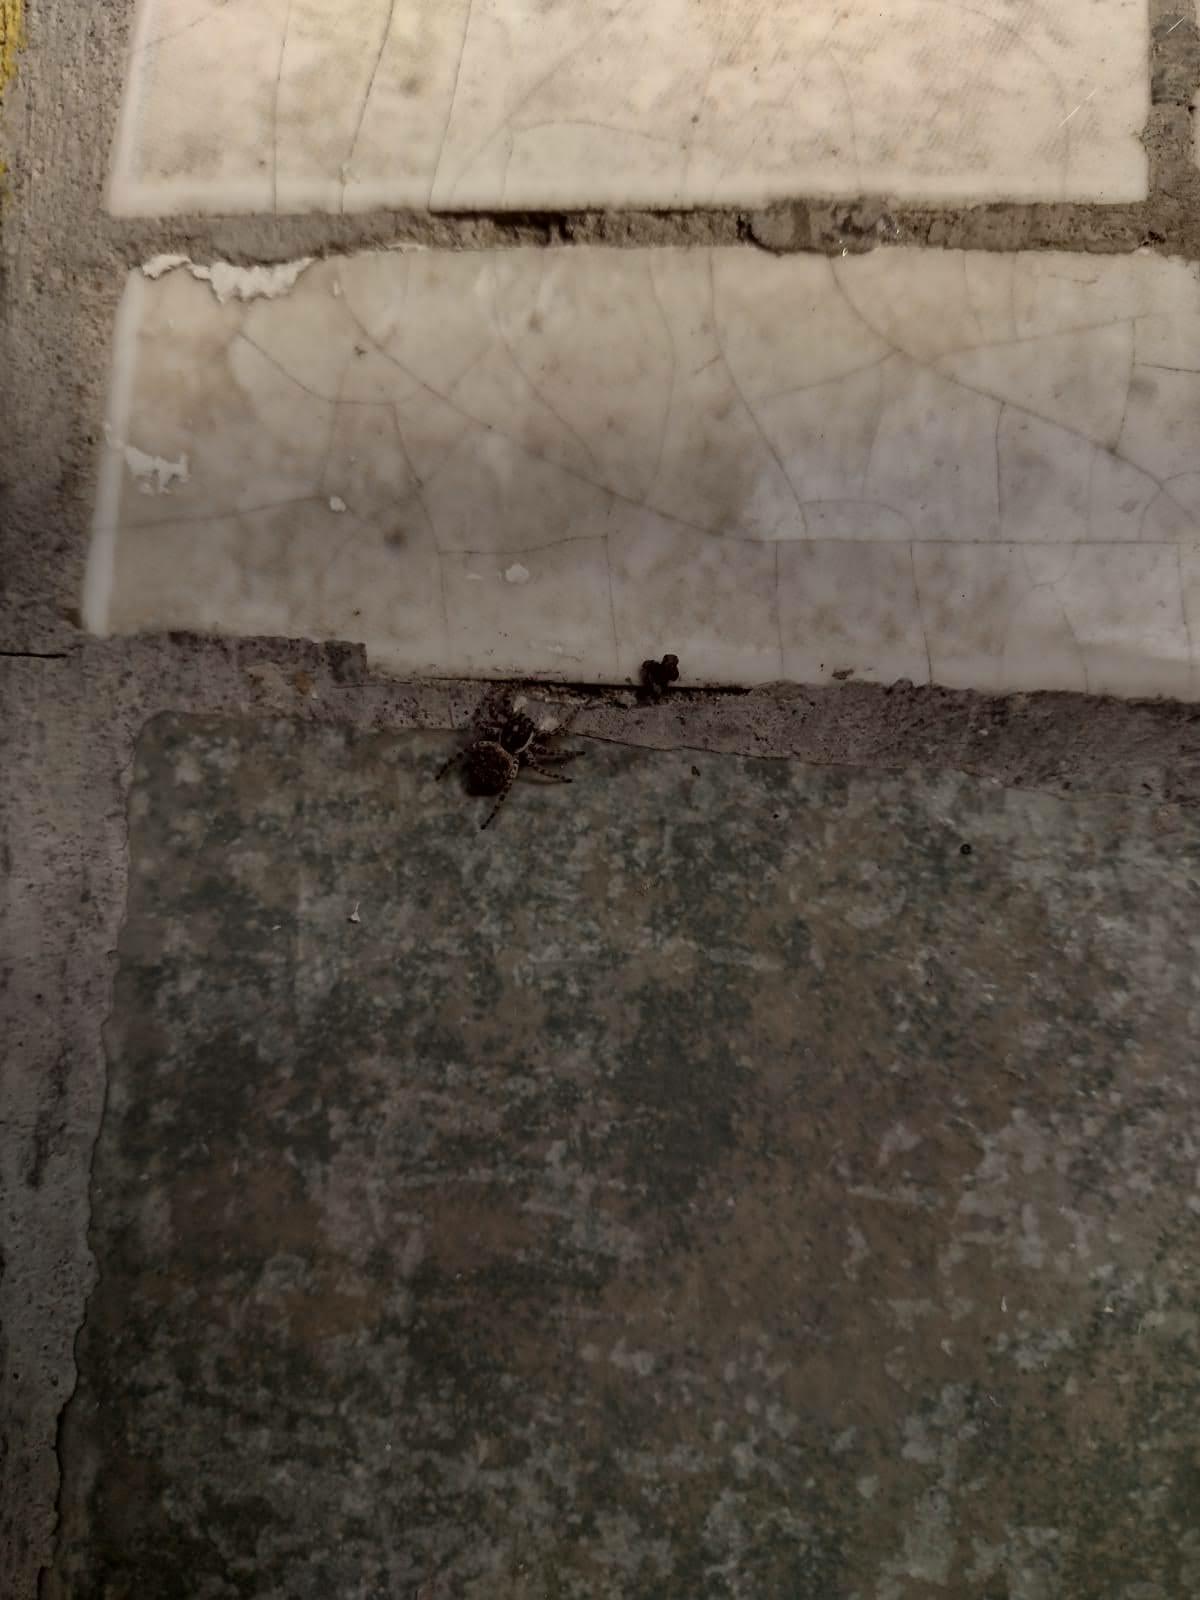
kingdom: Animalia
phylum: Arthropoda
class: Arachnida
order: Araneae
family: Salticidae
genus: Menemerus
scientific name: Menemerus semilimbatus
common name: Jumping spider
